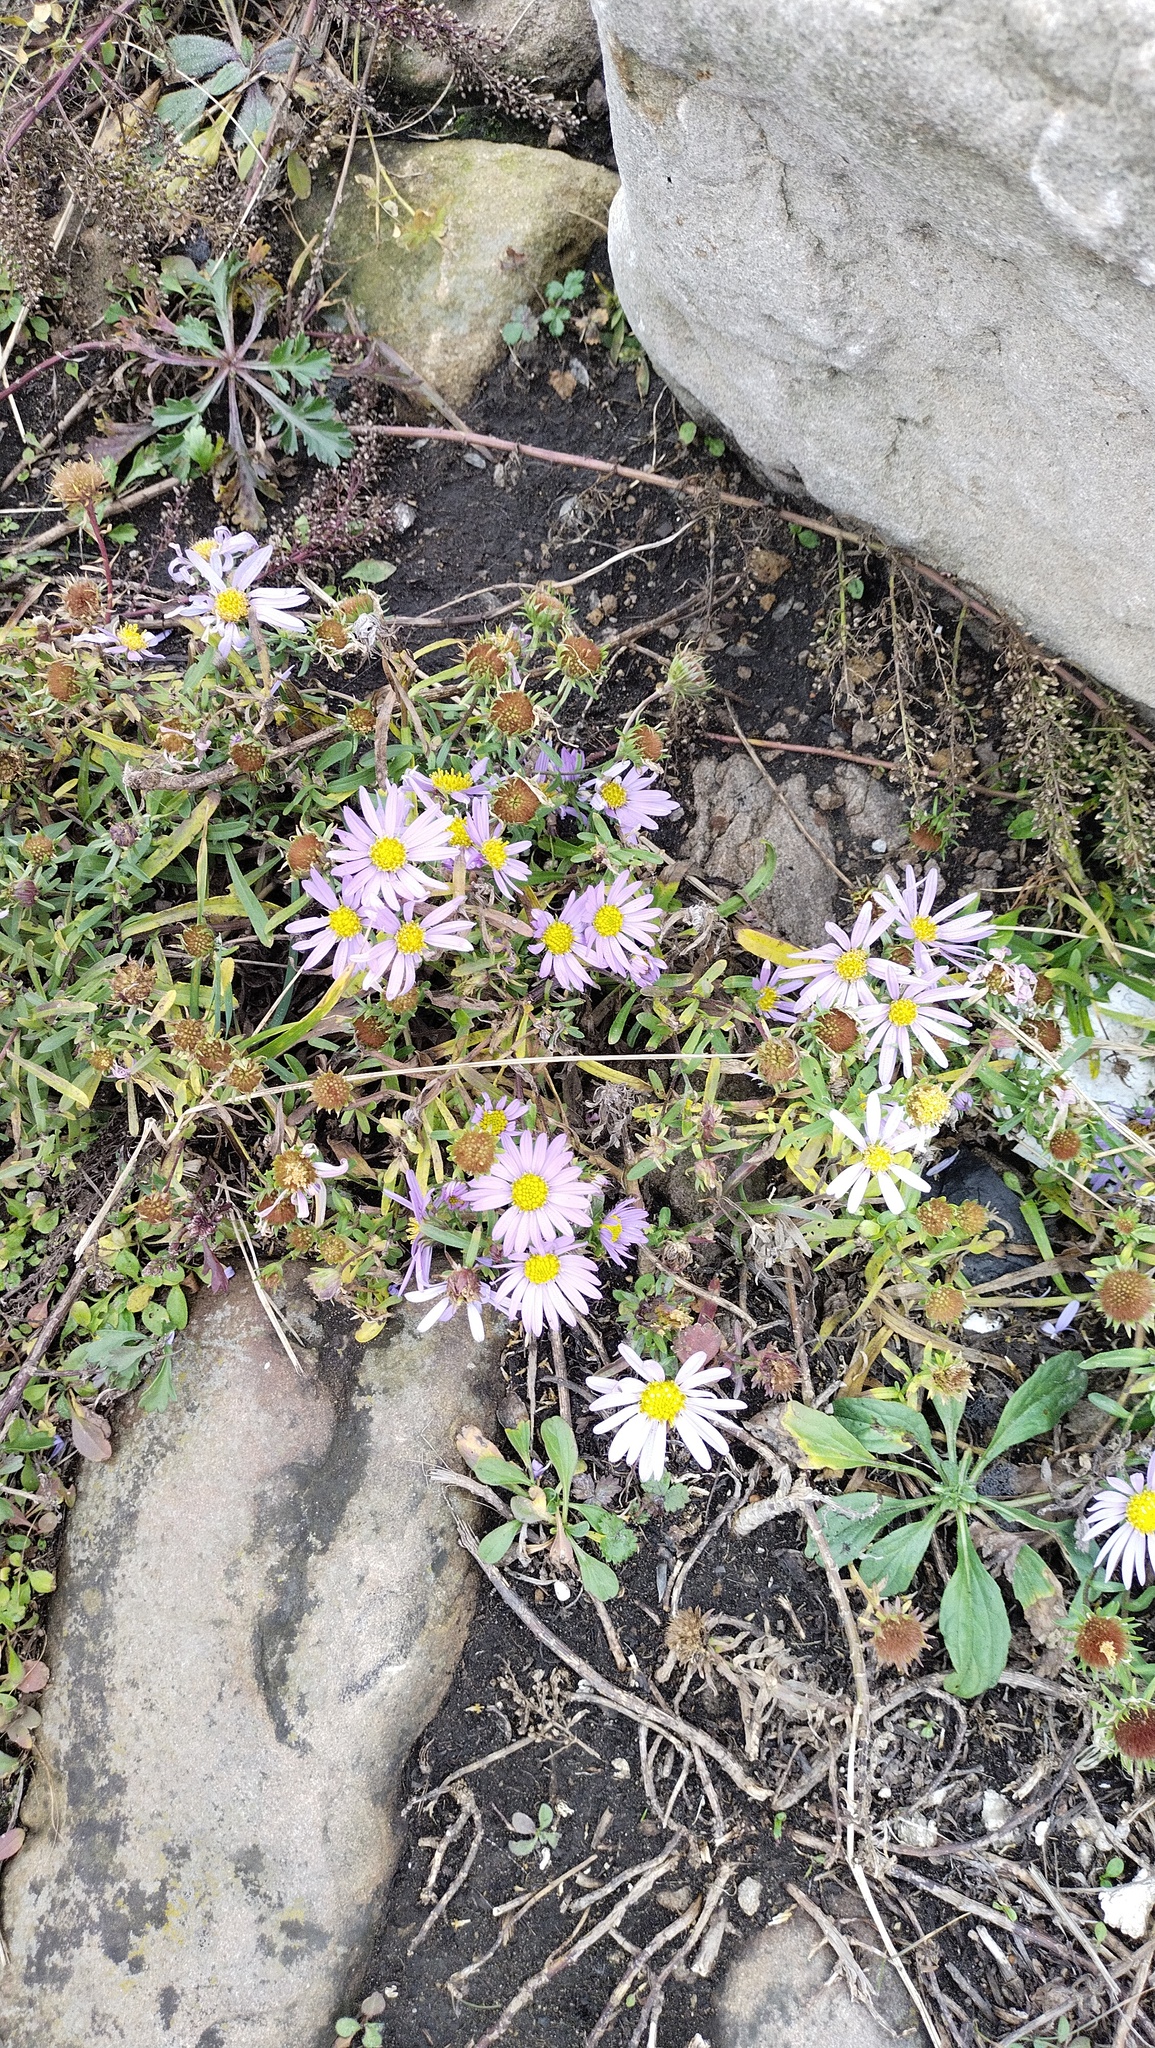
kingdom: Plantae
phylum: Tracheophyta
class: Magnoliopsida
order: Asterales
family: Asteraceae
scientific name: Asteraceae
